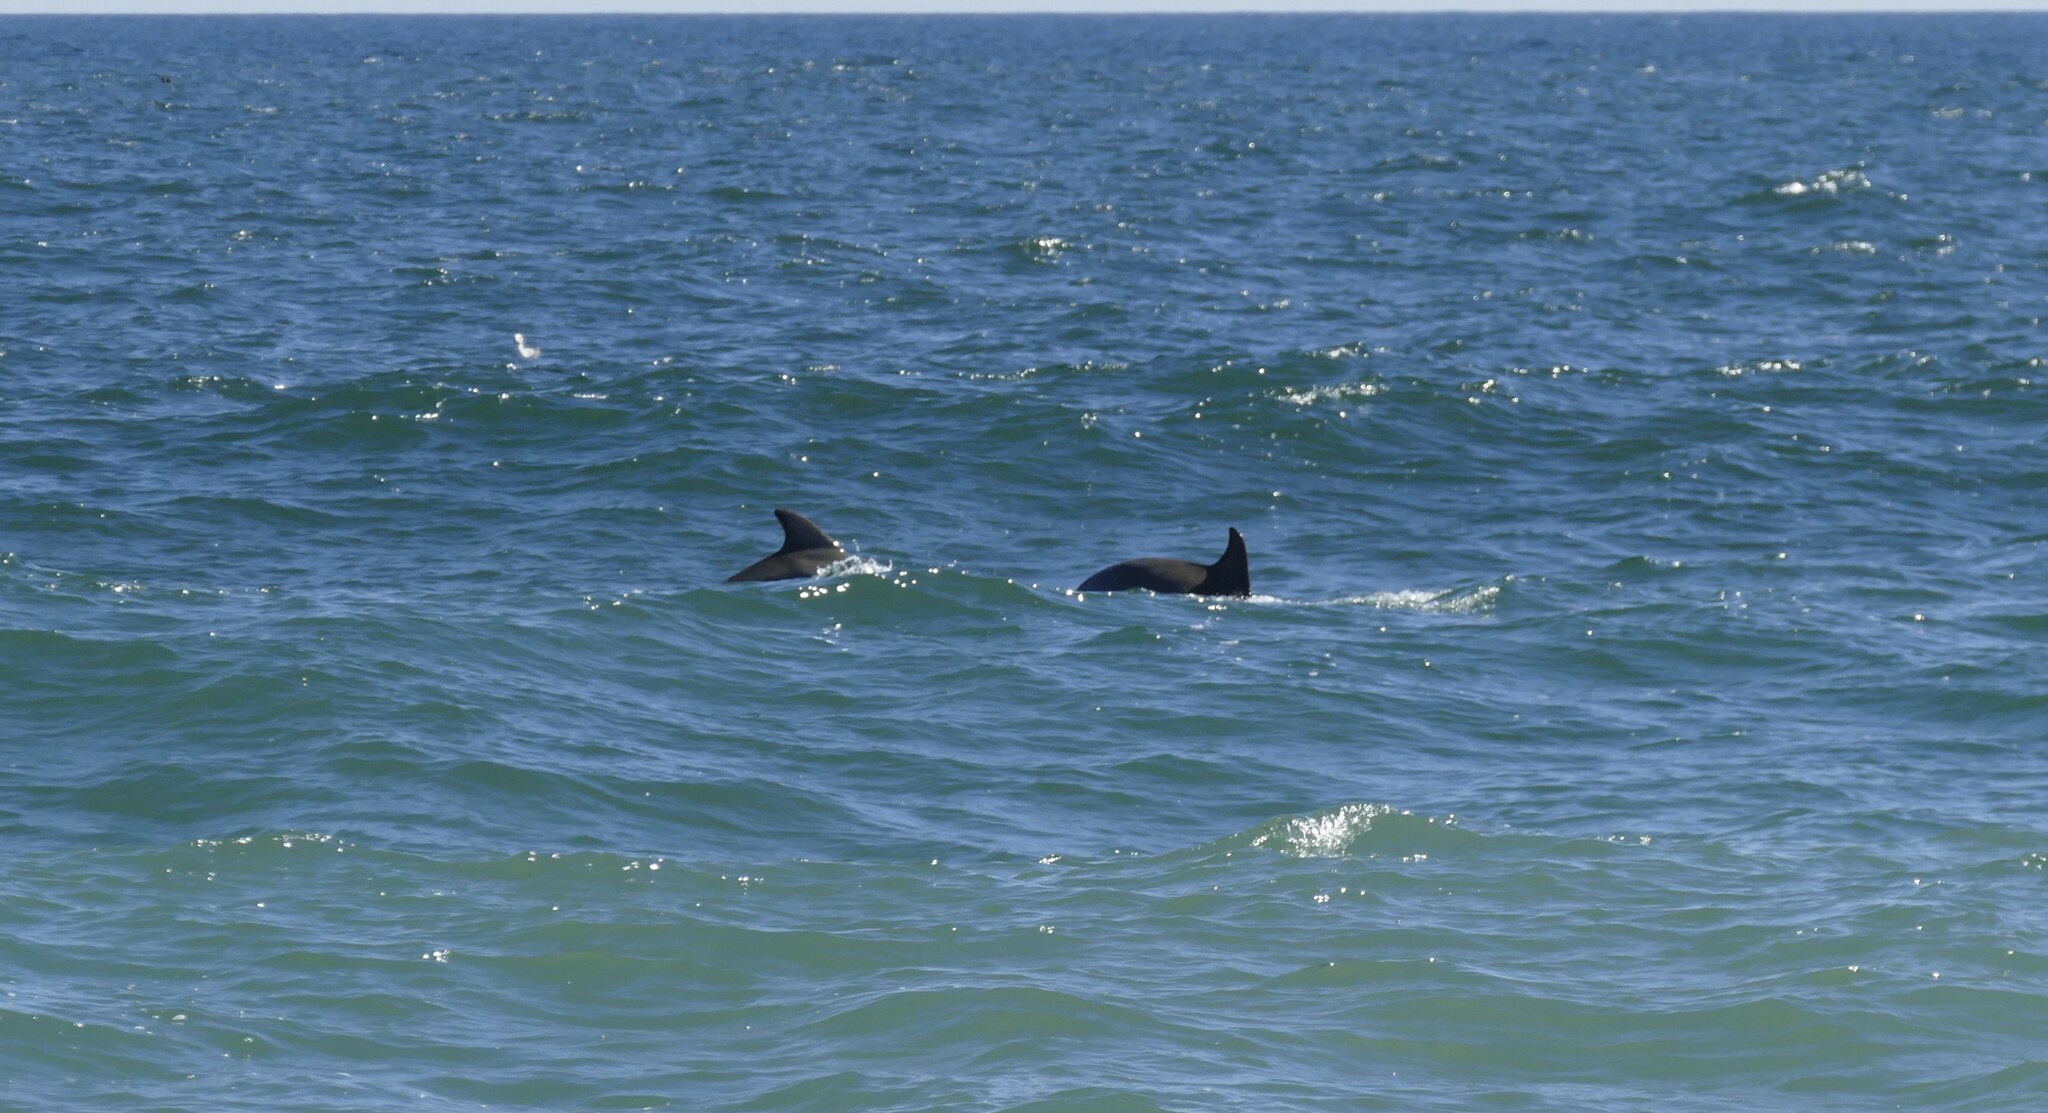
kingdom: Animalia
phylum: Chordata
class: Mammalia
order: Cetacea
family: Delphinidae
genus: Tursiops
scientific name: Tursiops truncatus
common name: Bottlenose dolphin
